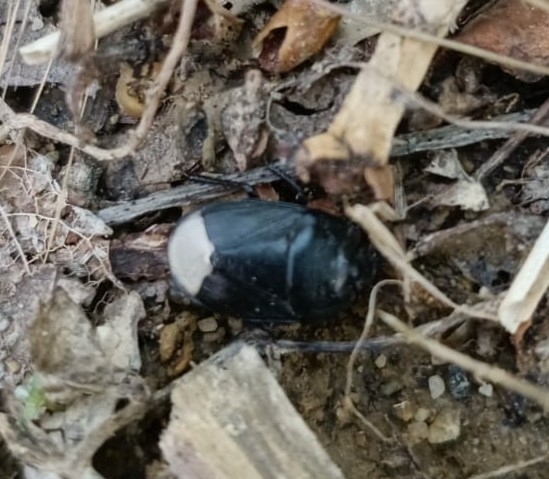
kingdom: Animalia
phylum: Arthropoda
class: Insecta
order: Hemiptera
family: Cydnidae
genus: Sehirus
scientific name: Sehirus morio
